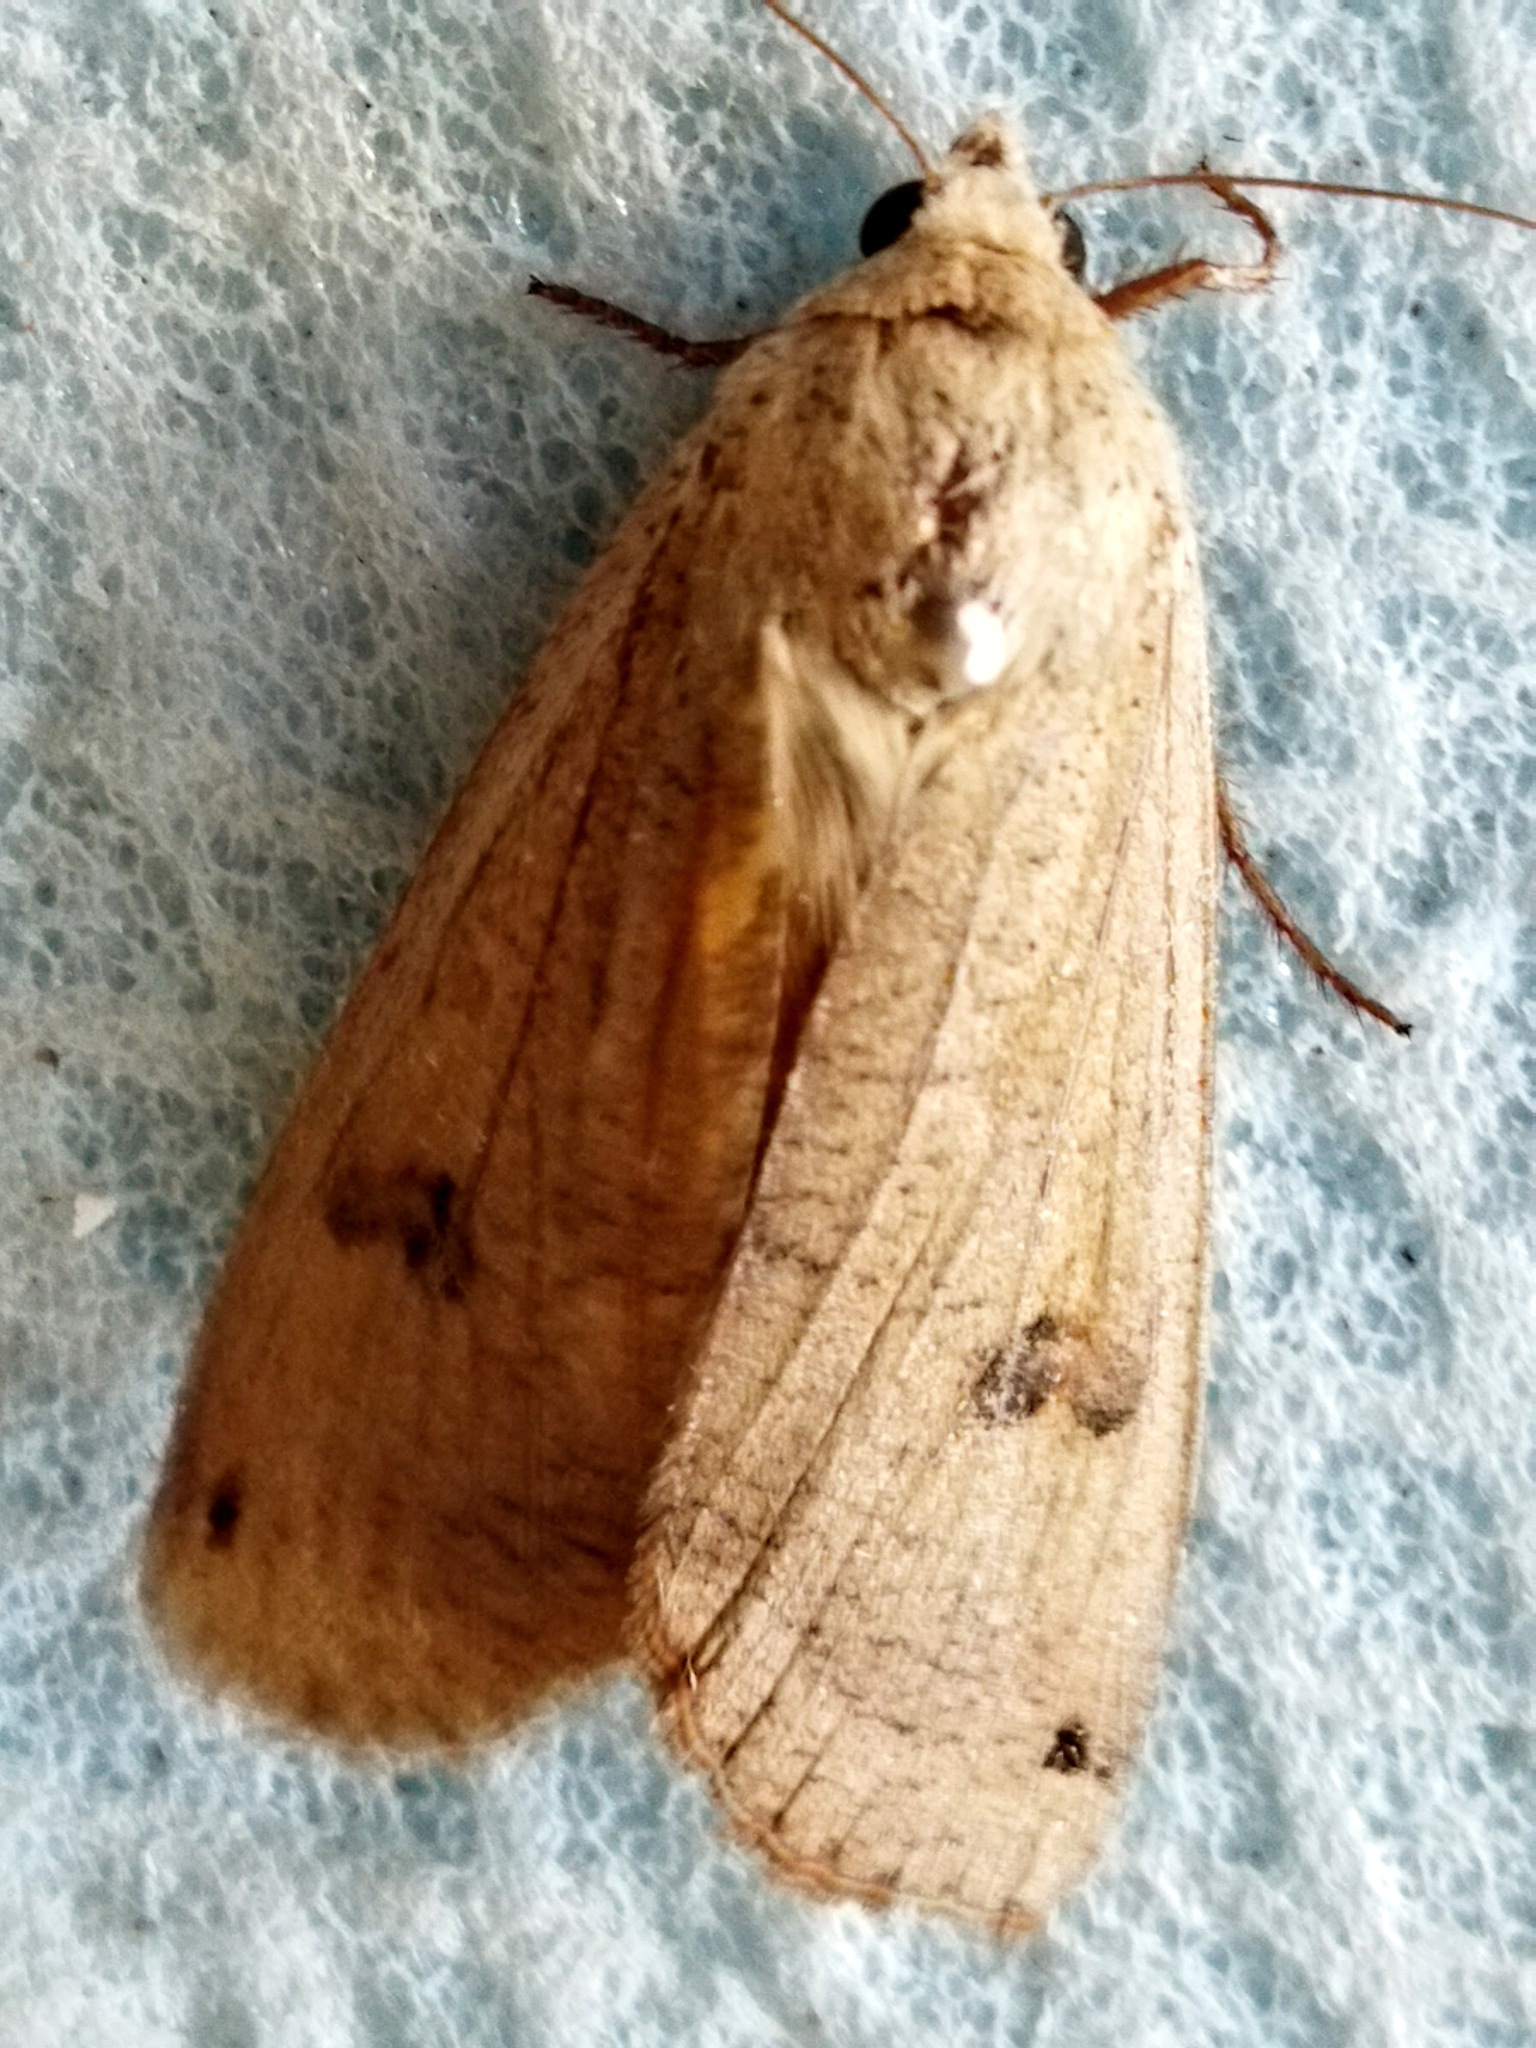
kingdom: Animalia
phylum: Arthropoda
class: Insecta
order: Lepidoptera
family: Noctuidae
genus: Noctua
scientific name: Noctua pronuba
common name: Large yellow underwing
